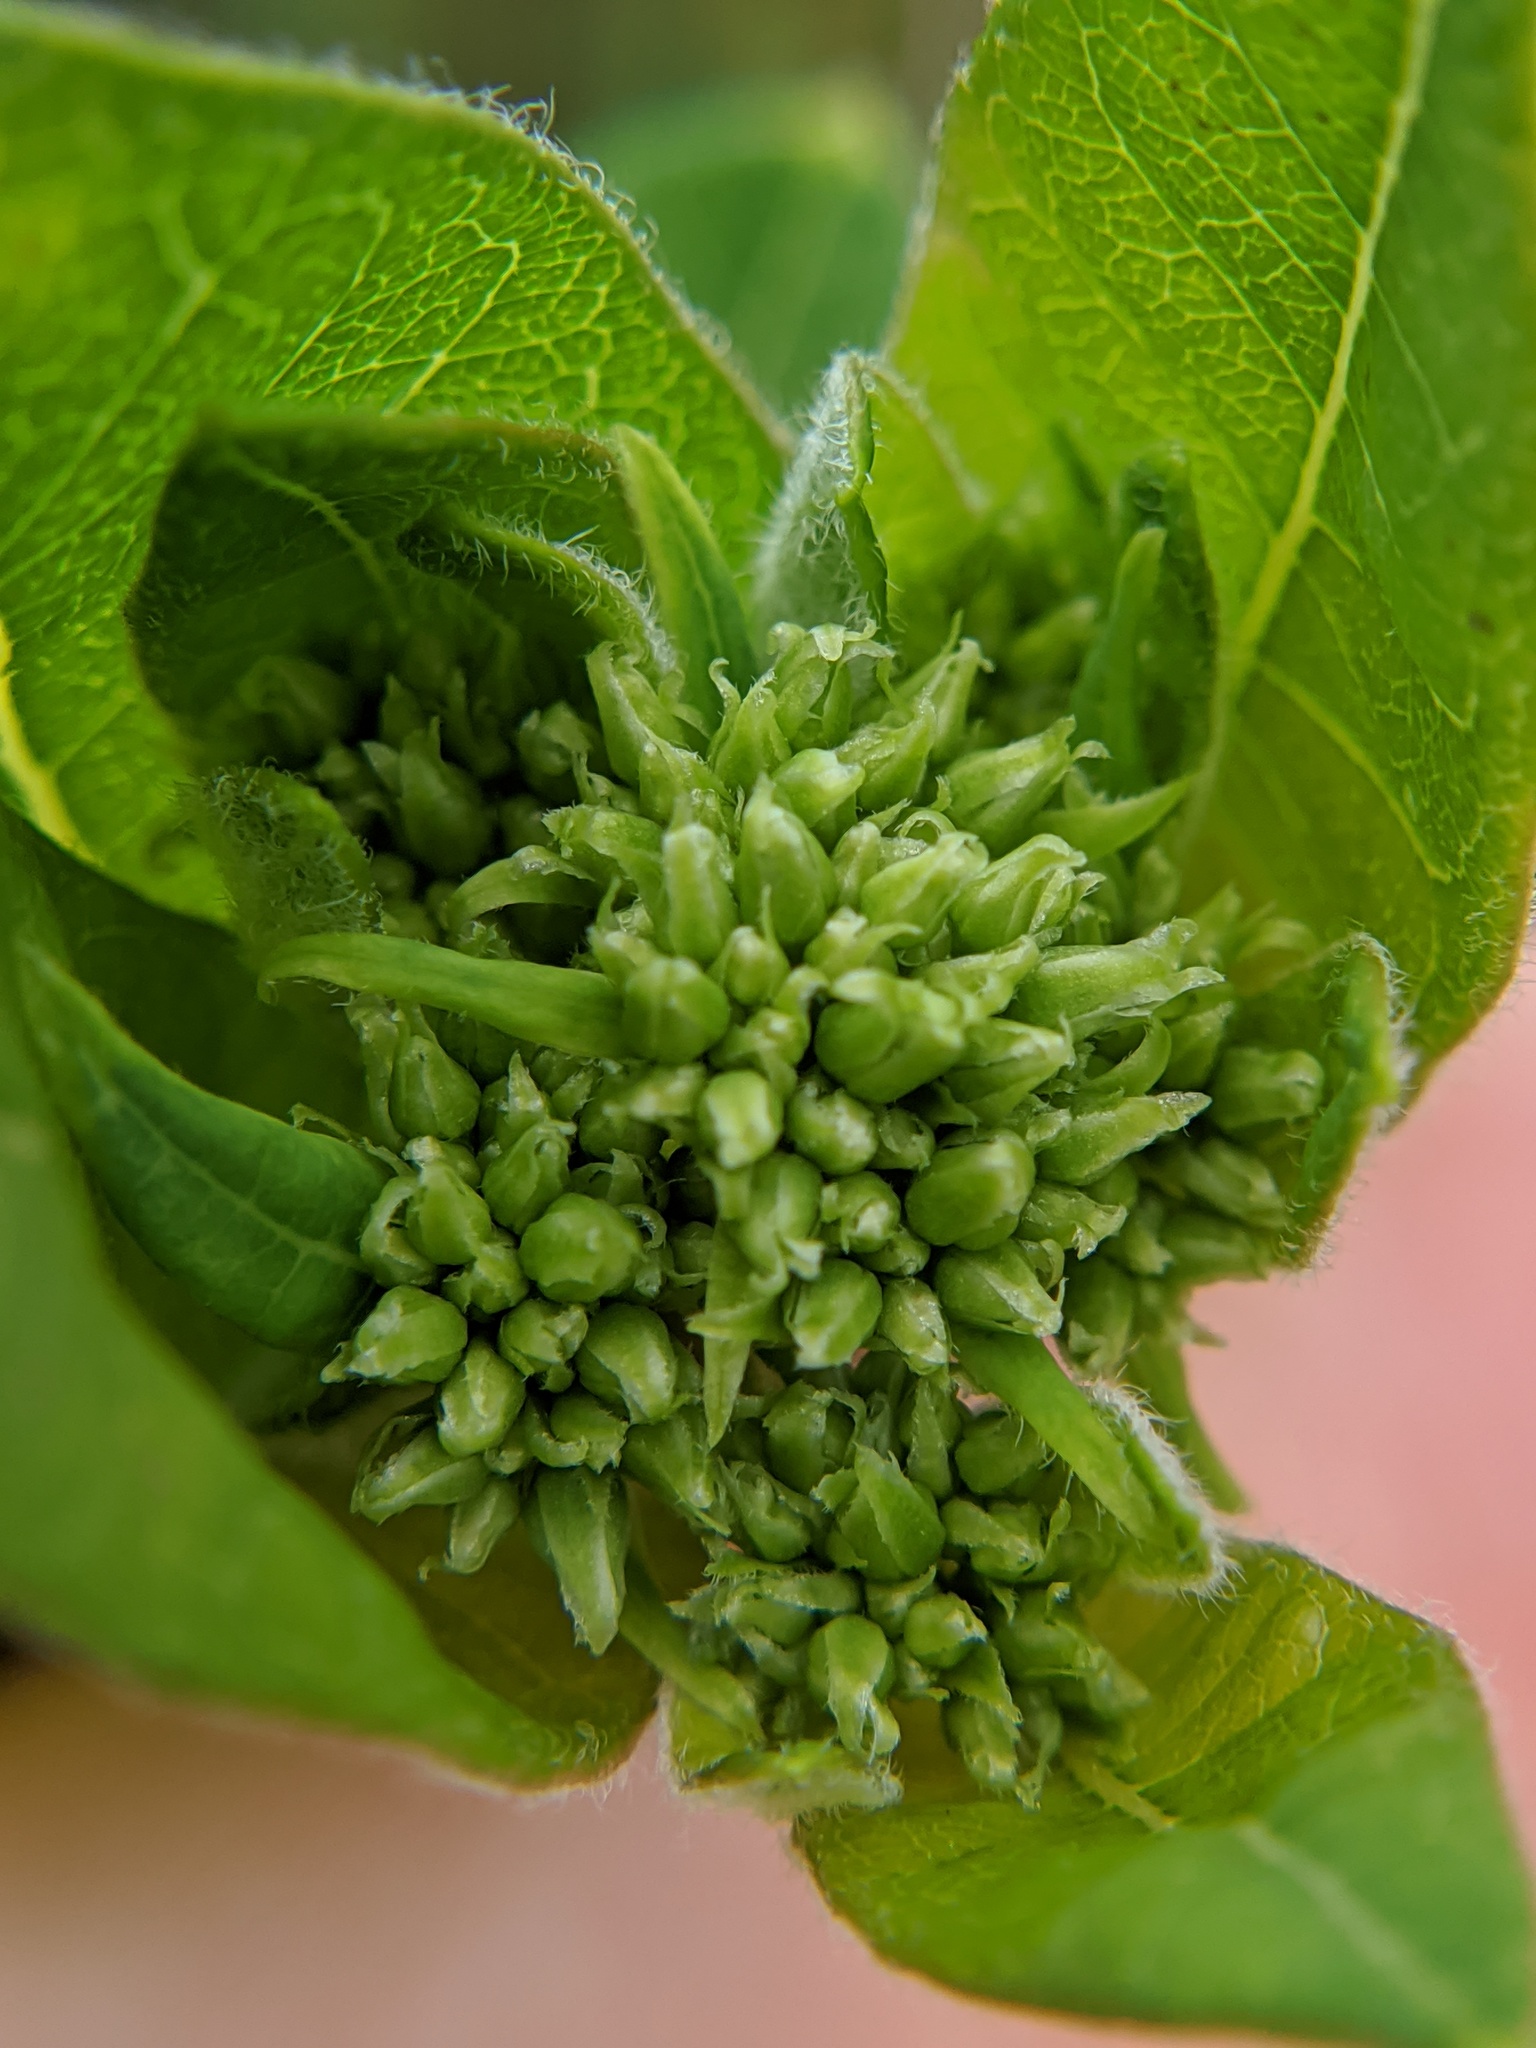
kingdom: Plantae
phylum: Tracheophyta
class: Magnoliopsida
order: Gentianales
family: Apocynaceae
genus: Apocynum
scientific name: Apocynum cannabinum
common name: Hemp dogbane
